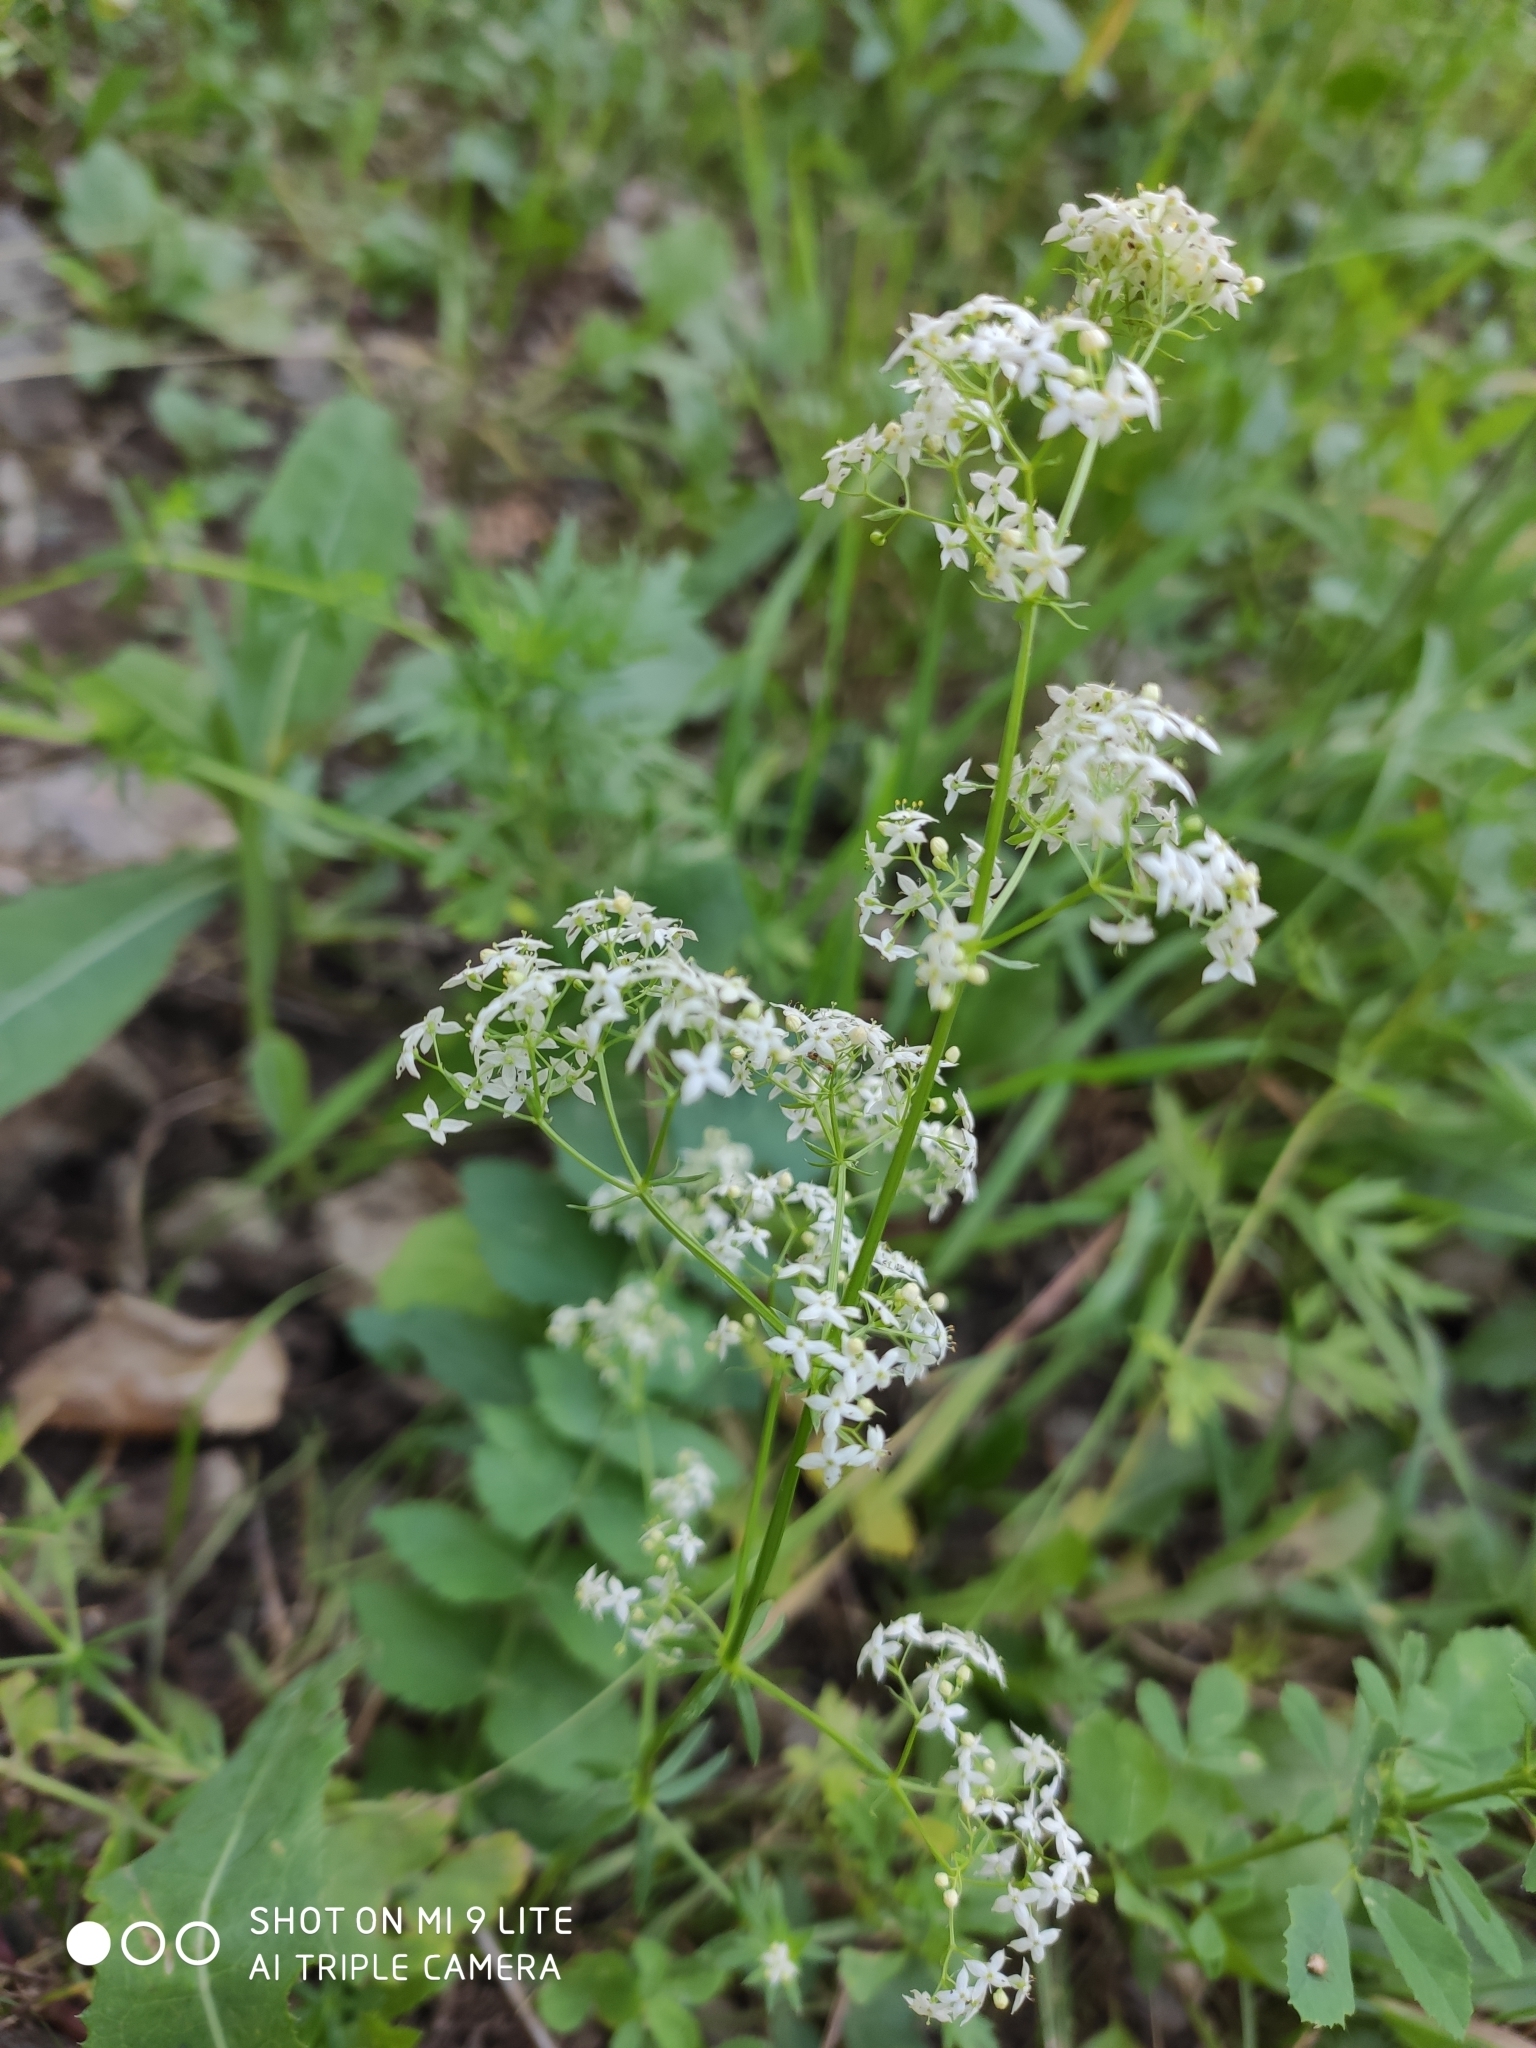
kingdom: Plantae
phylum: Tracheophyta
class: Magnoliopsida
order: Gentianales
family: Rubiaceae
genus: Galium
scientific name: Galium mollugo
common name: Hedge bedstraw
